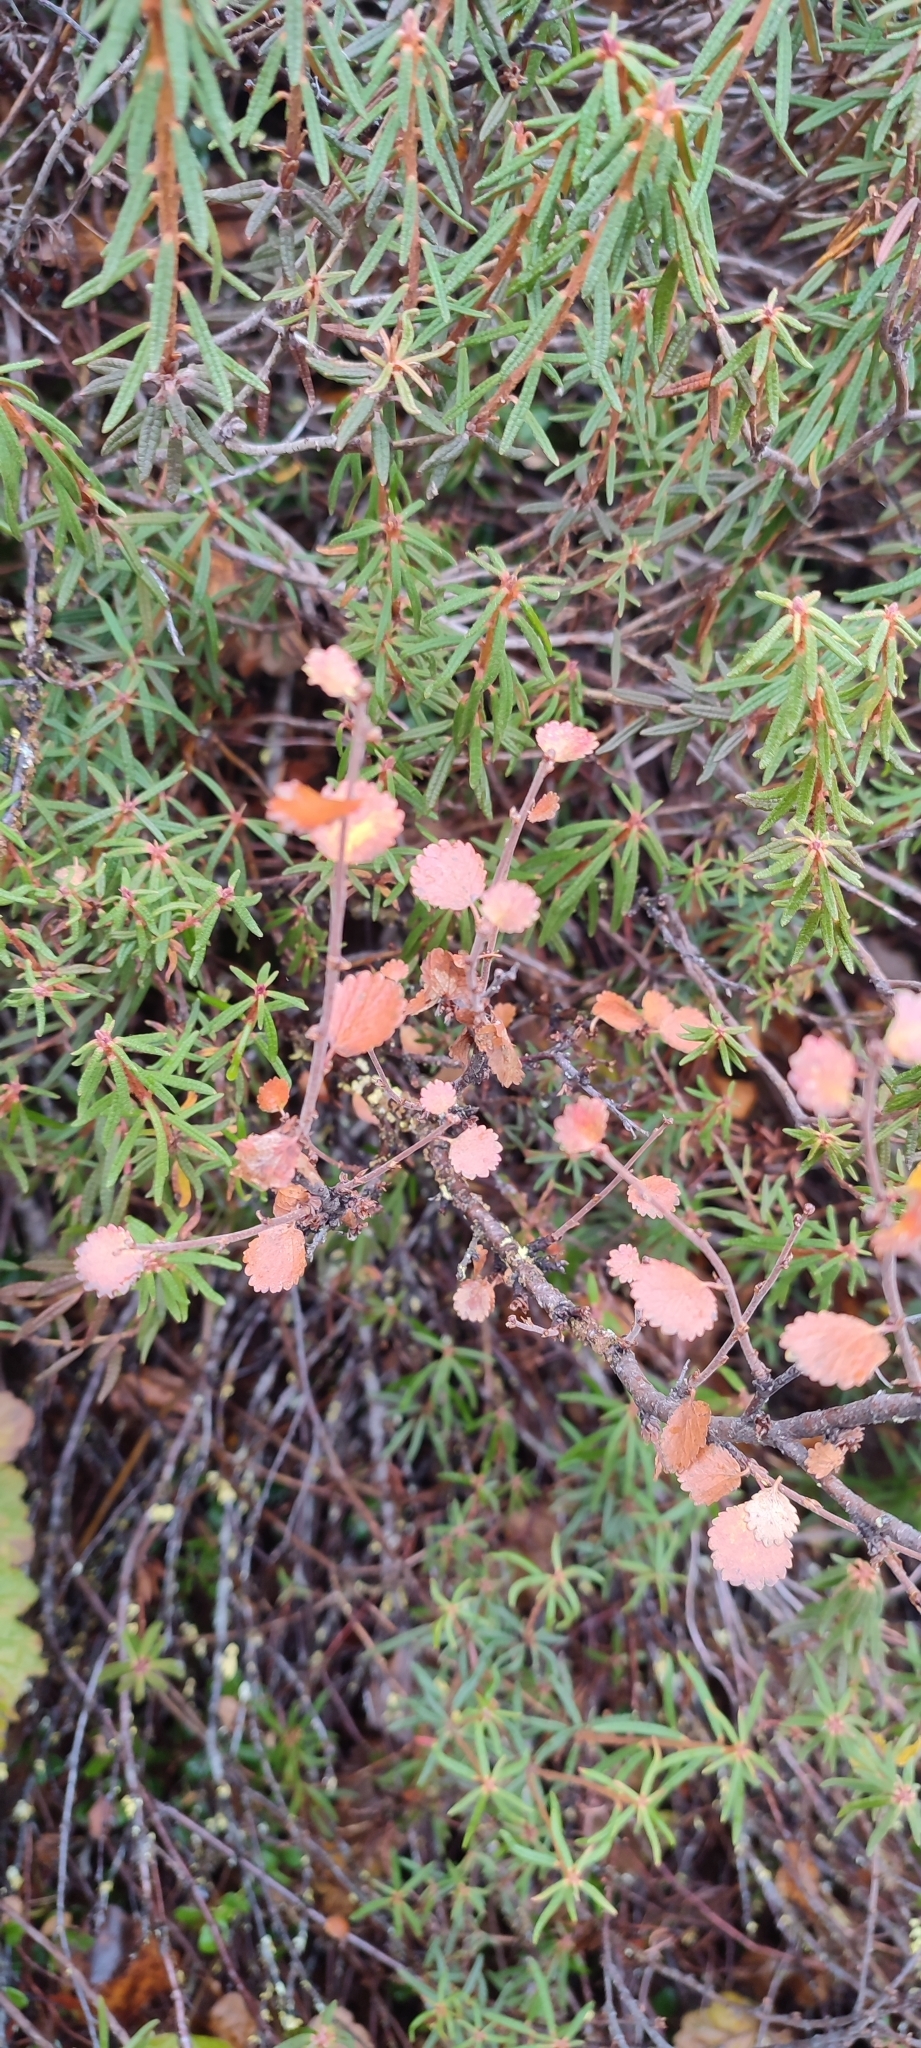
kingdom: Plantae
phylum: Tracheophyta
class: Magnoliopsida
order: Fagales
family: Betulaceae
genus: Betula
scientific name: Betula nana
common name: Arctic dwarf birch
